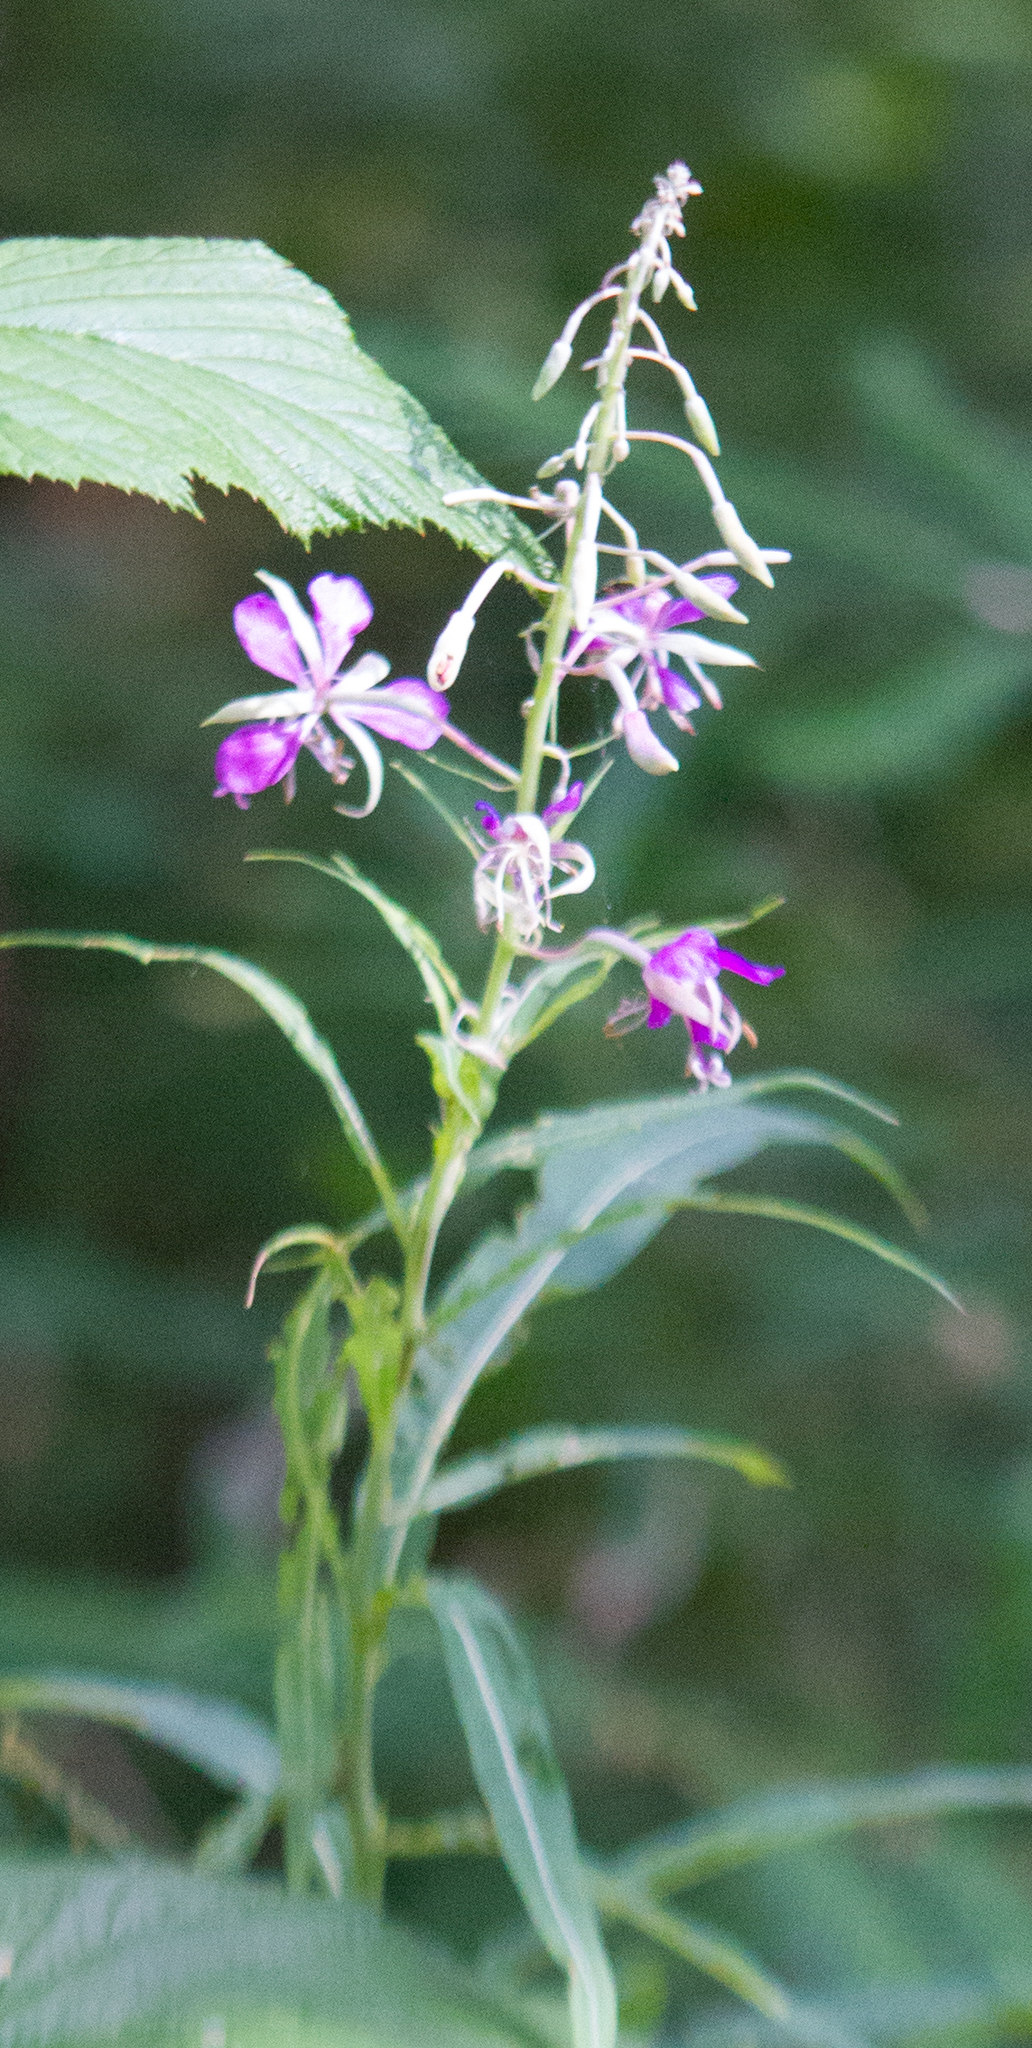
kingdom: Plantae
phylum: Tracheophyta
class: Magnoliopsida
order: Myrtales
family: Onagraceae
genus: Chamaenerion
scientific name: Chamaenerion angustifolium
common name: Fireweed
